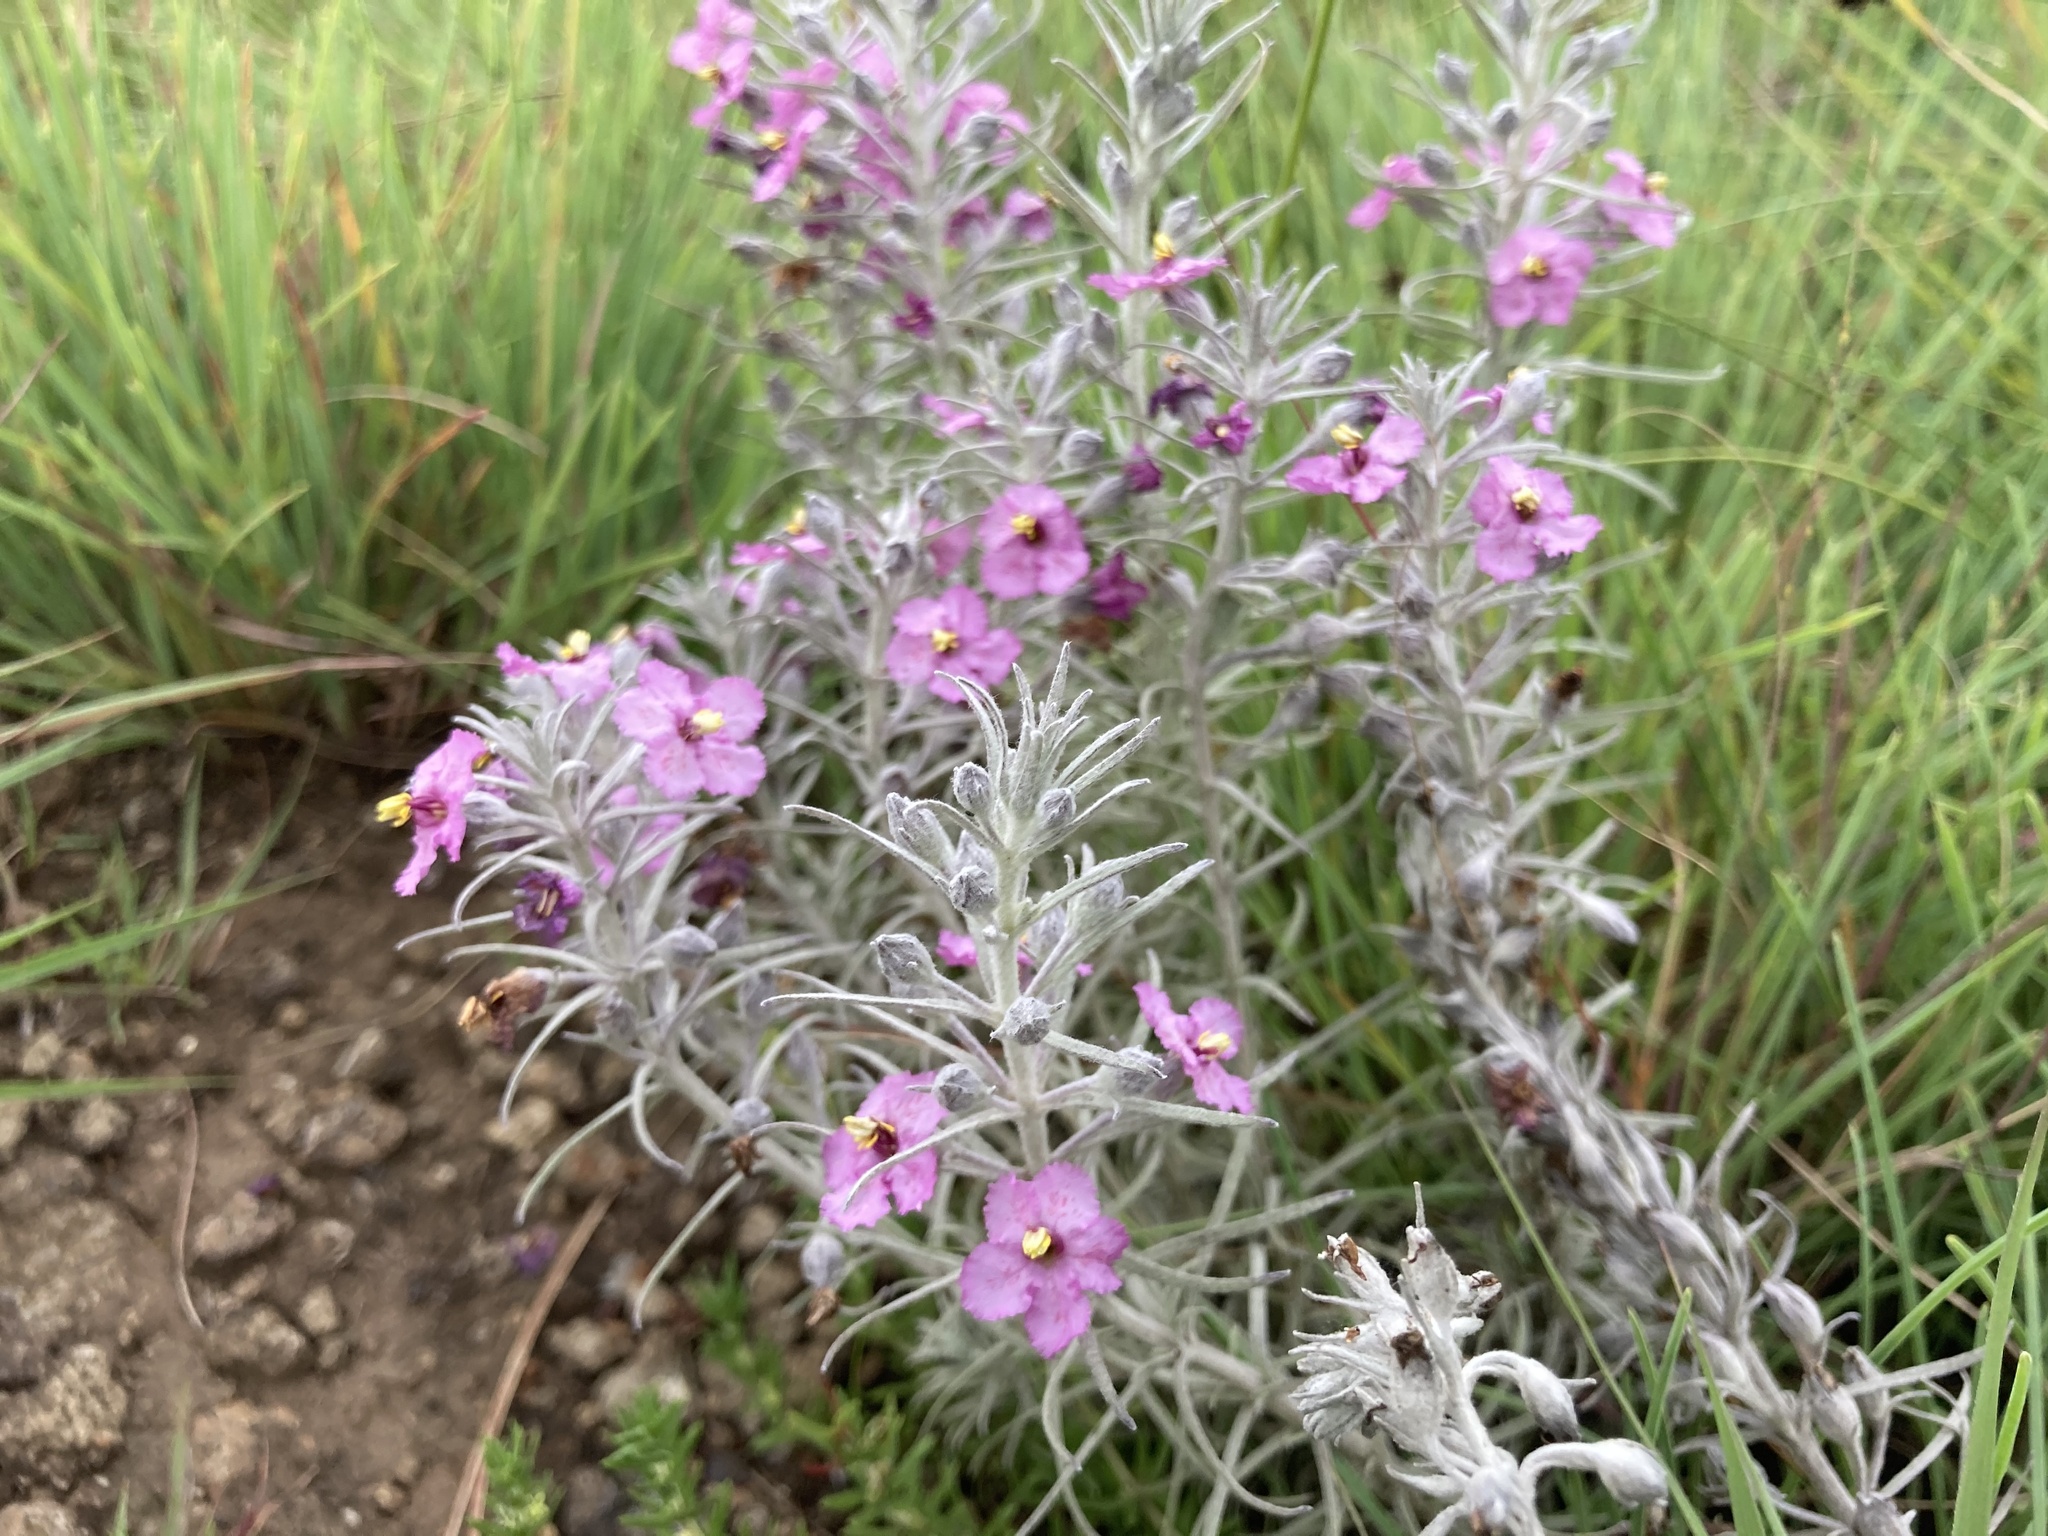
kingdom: Plantae
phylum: Tracheophyta
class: Magnoliopsida
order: Lamiales
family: Orobanchaceae
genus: Sopubia
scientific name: Sopubia cana
